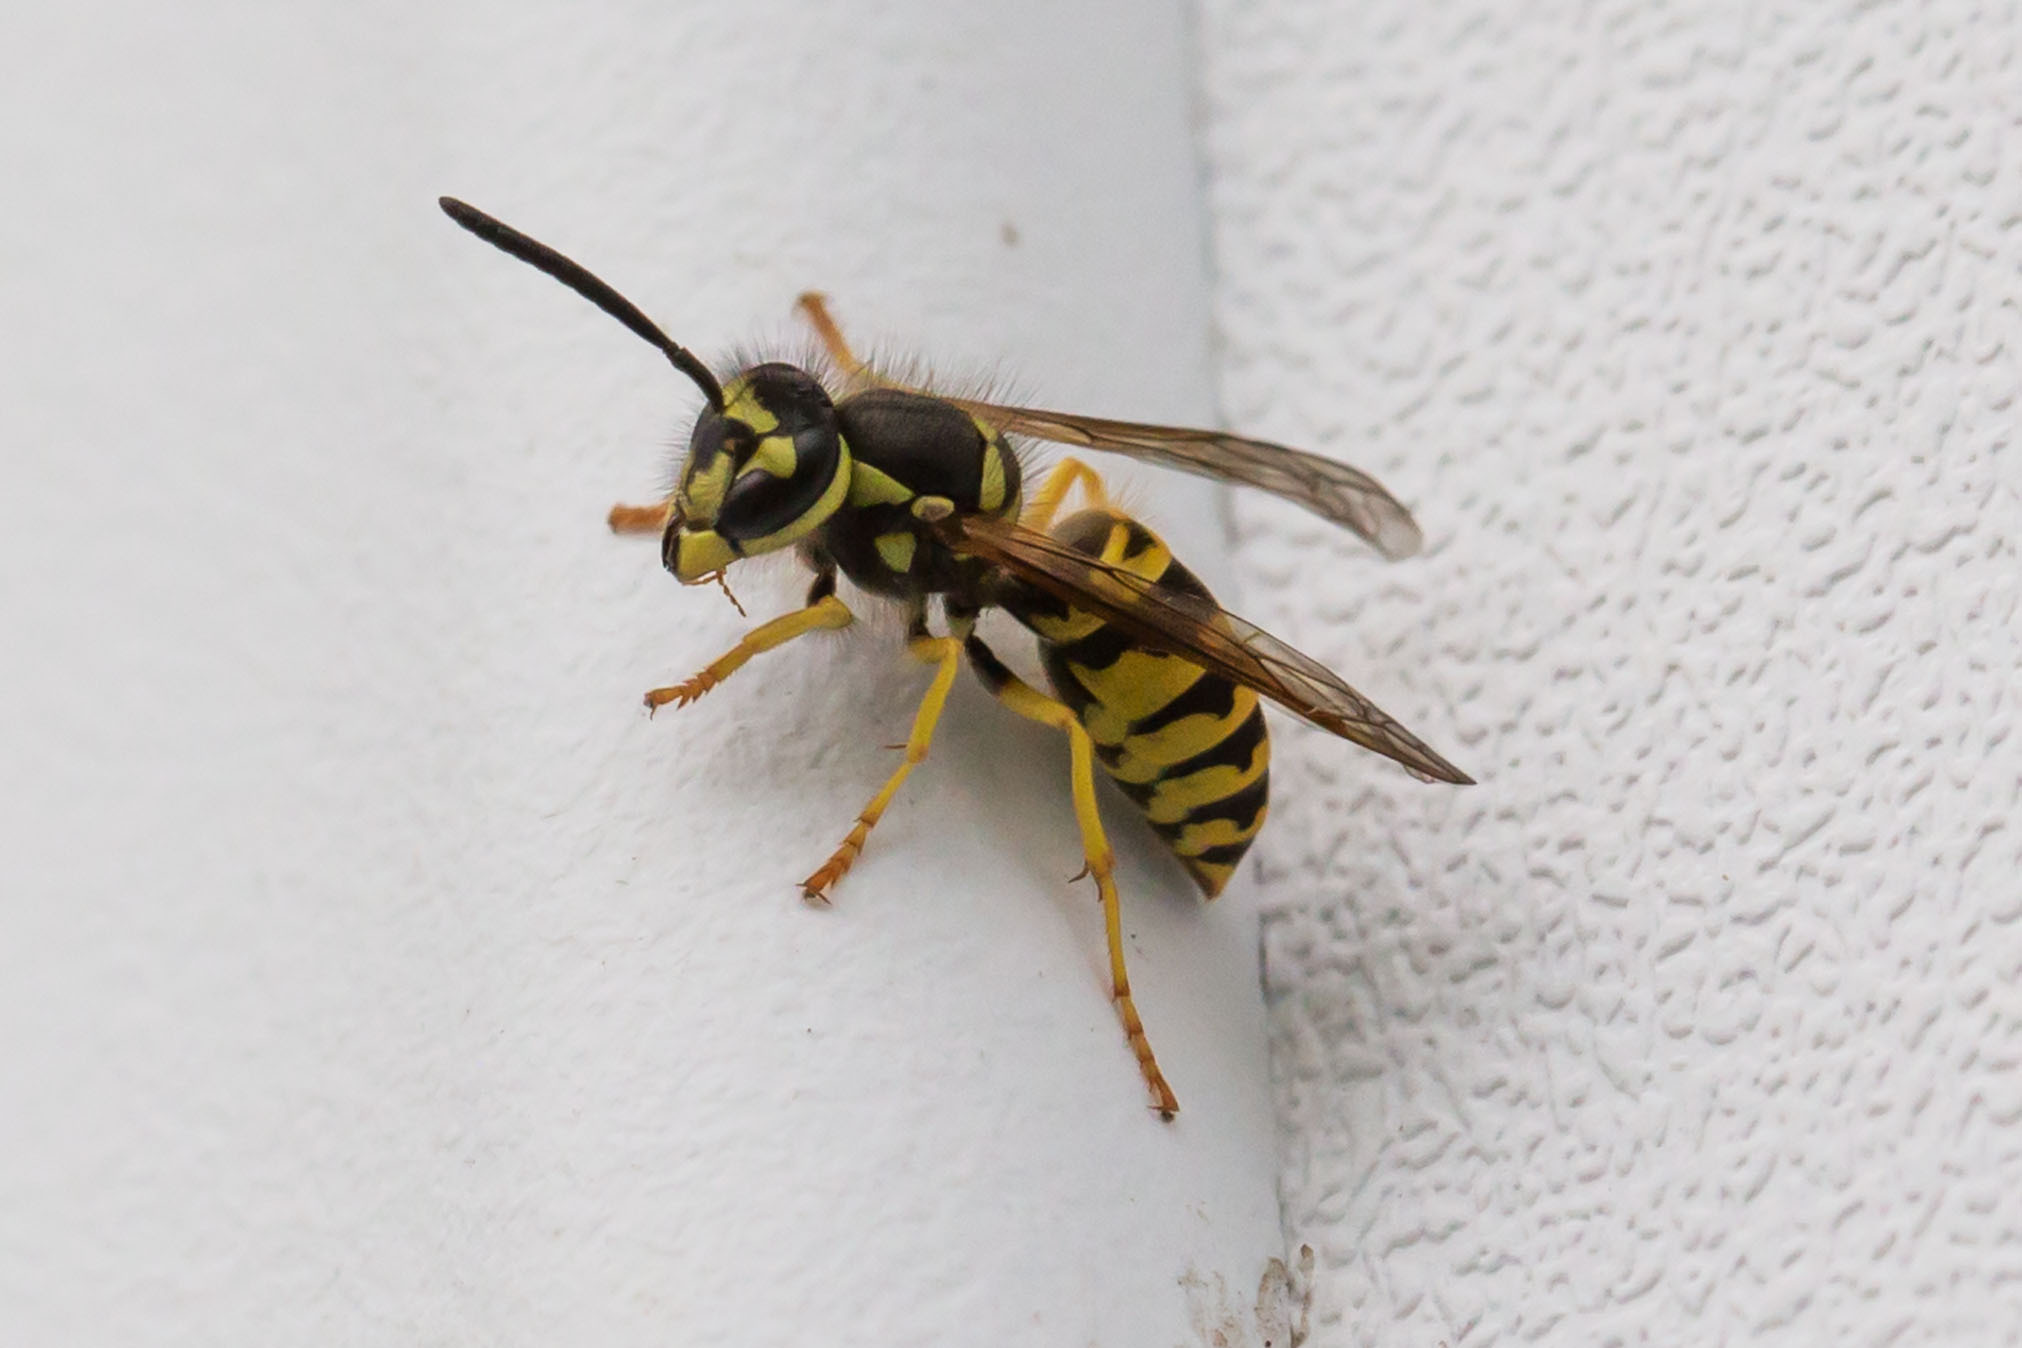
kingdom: Animalia
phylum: Arthropoda
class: Insecta
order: Hymenoptera
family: Vespidae
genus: Vespula
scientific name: Vespula maculifrons
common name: Eastern yellowjacket
